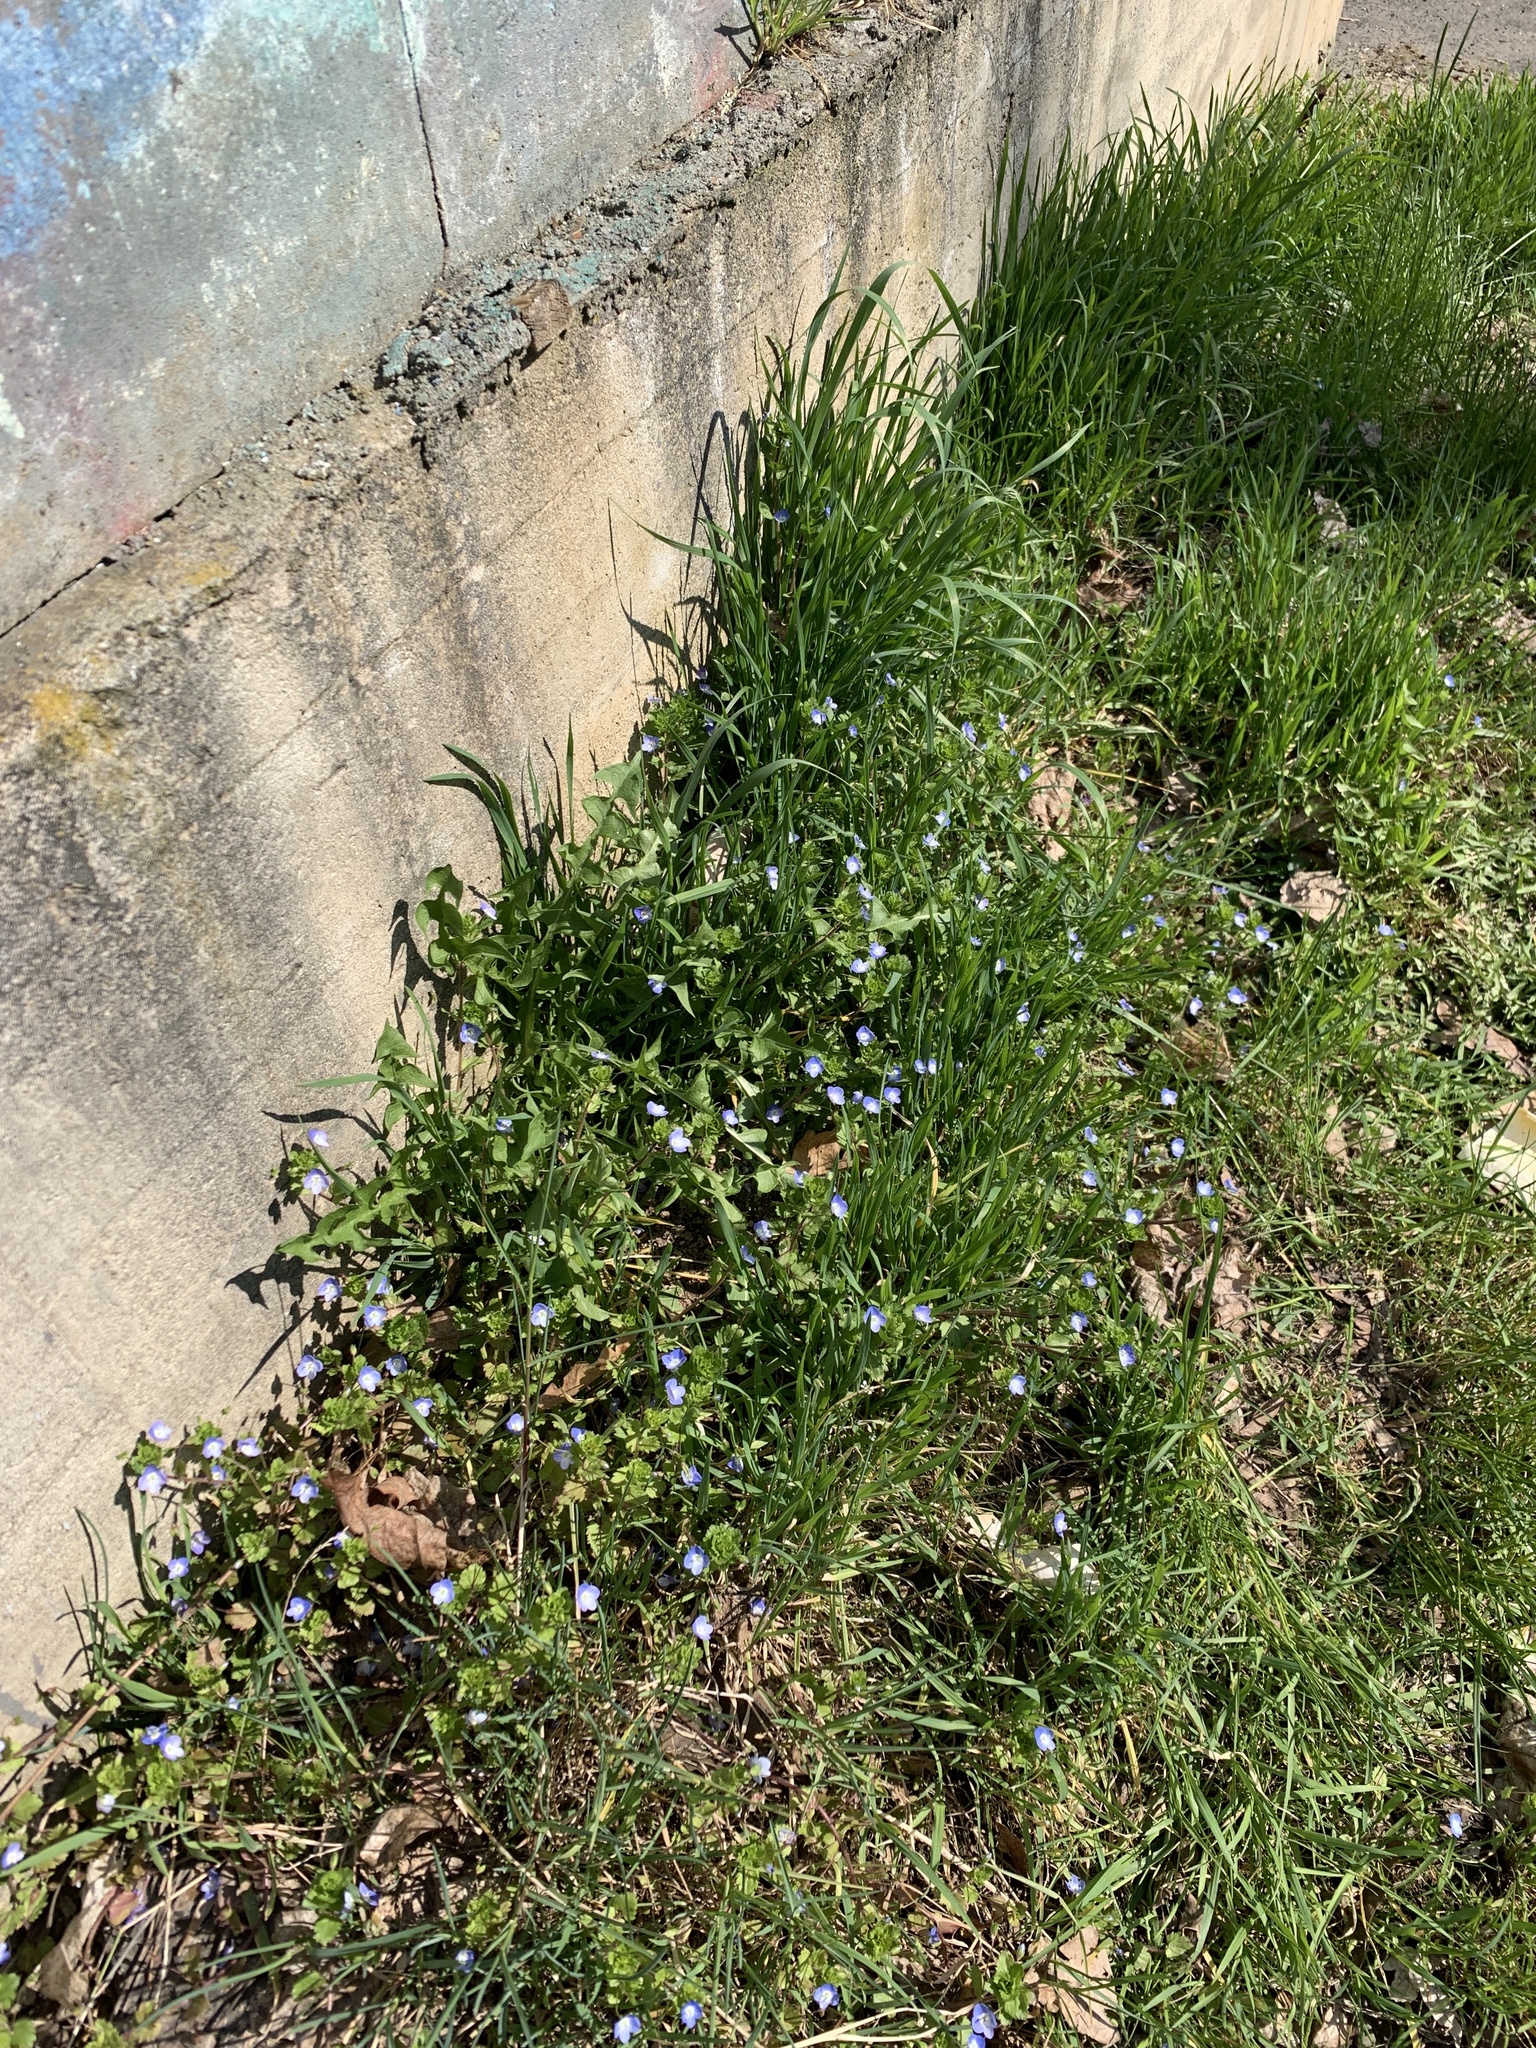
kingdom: Plantae
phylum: Tracheophyta
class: Magnoliopsida
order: Lamiales
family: Plantaginaceae
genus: Veronica
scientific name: Veronica persica
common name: Common field-speedwell
